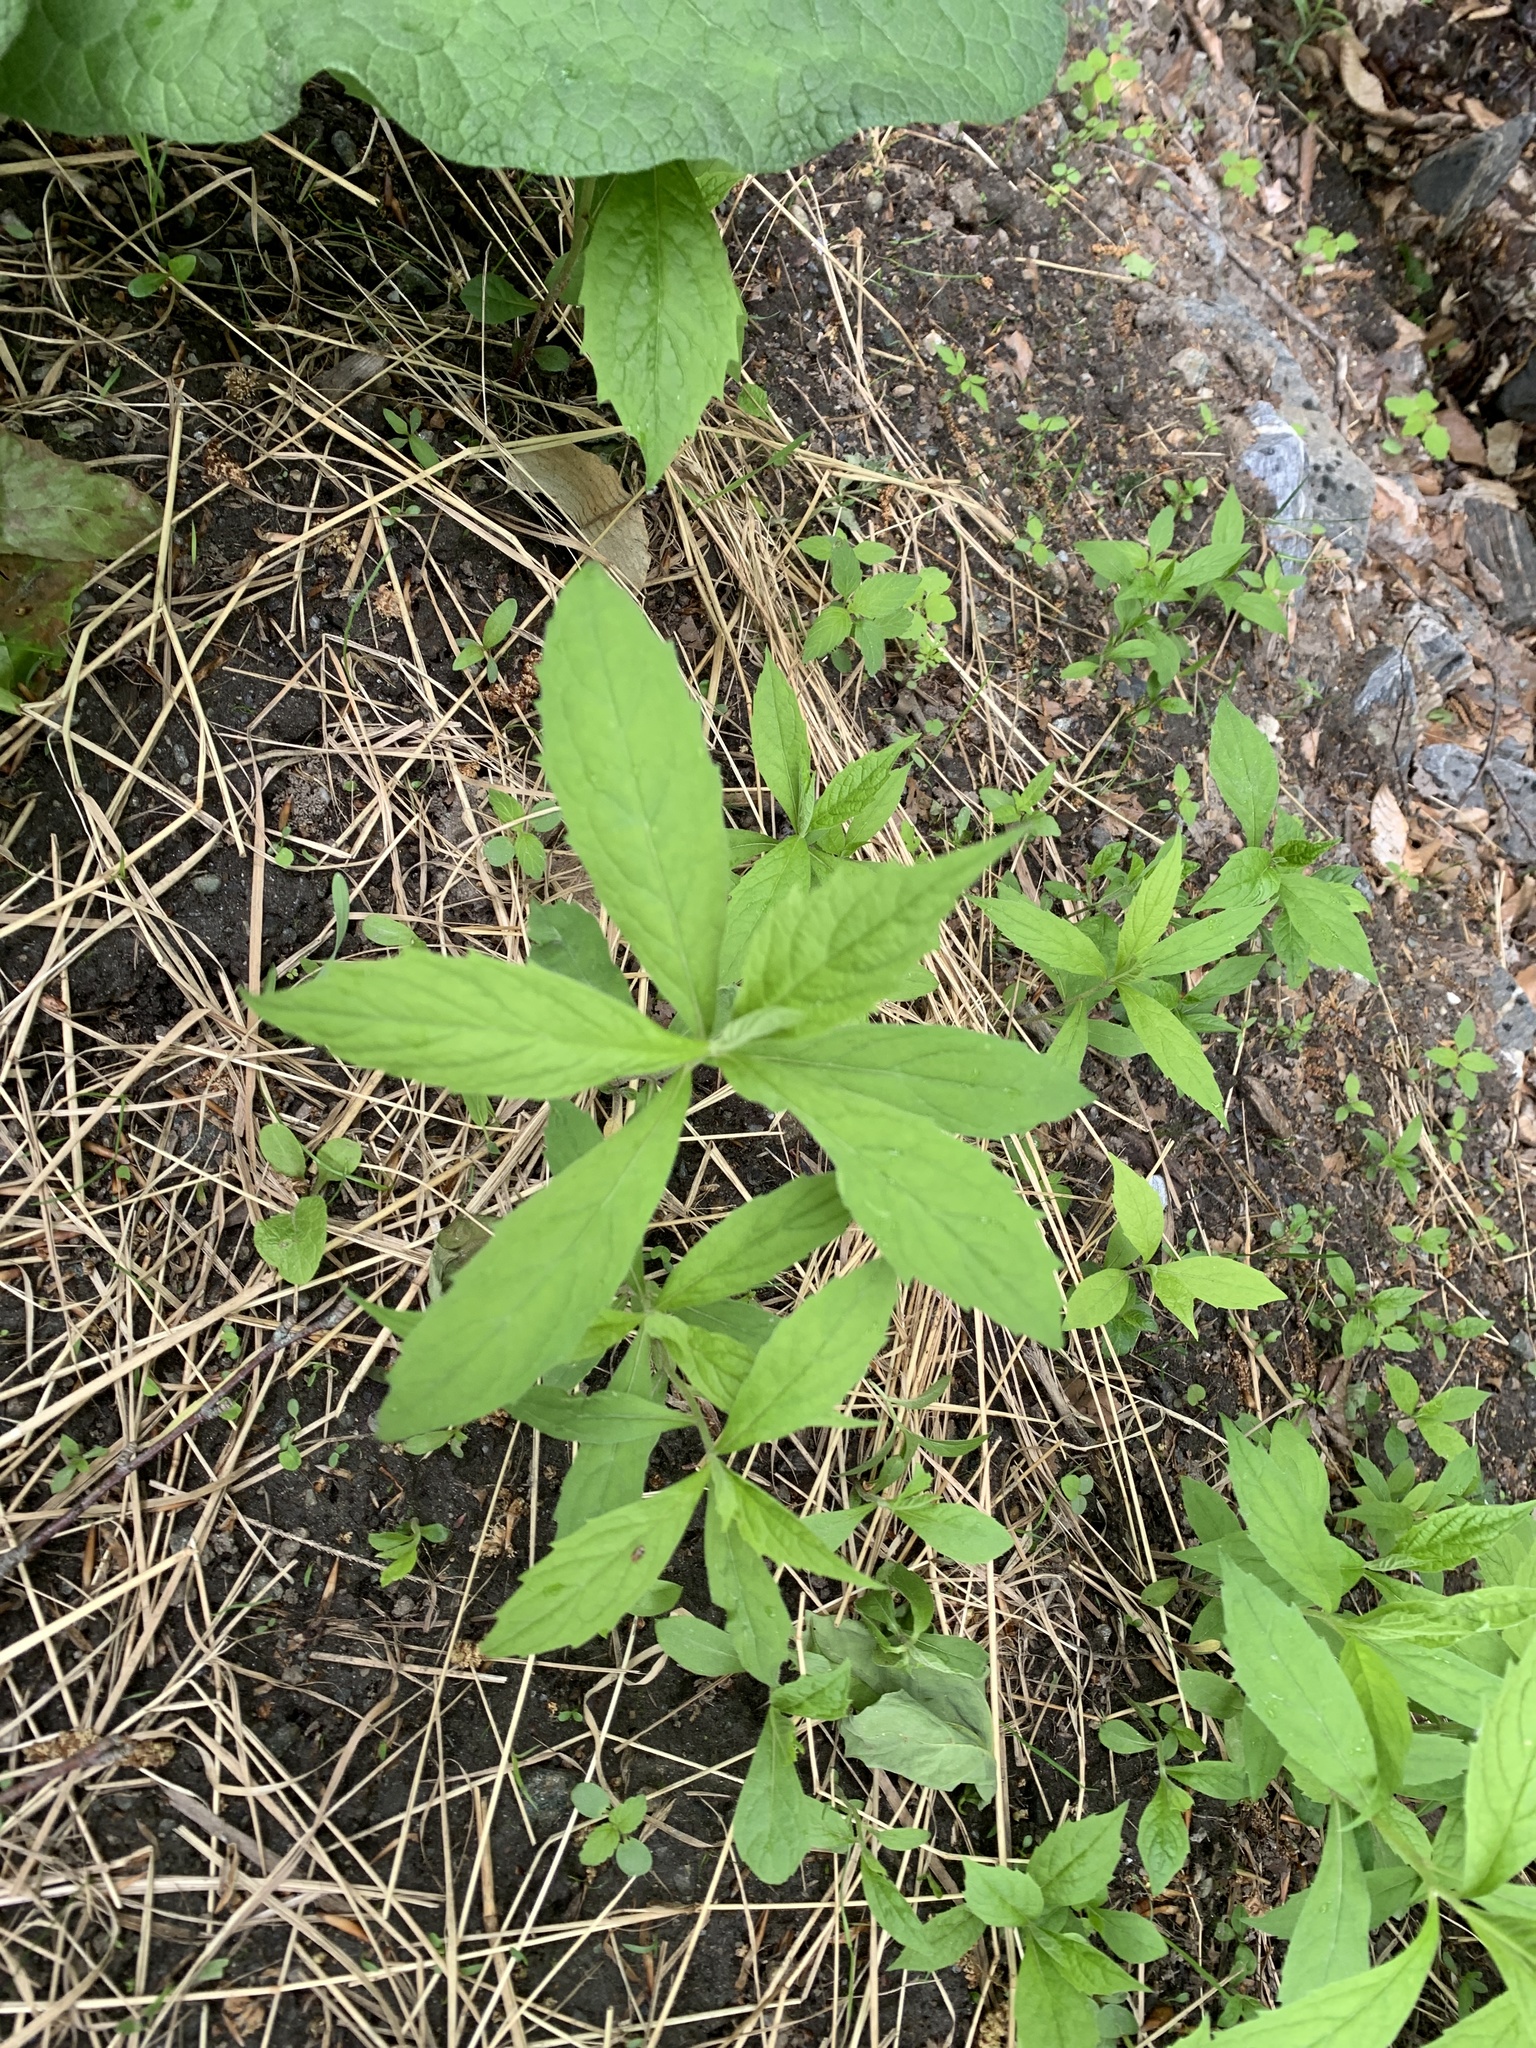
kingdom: Plantae
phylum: Tracheophyta
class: Magnoliopsida
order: Asterales
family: Asteraceae
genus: Oclemena
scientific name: Oclemena acuminata
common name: Mountain aster
